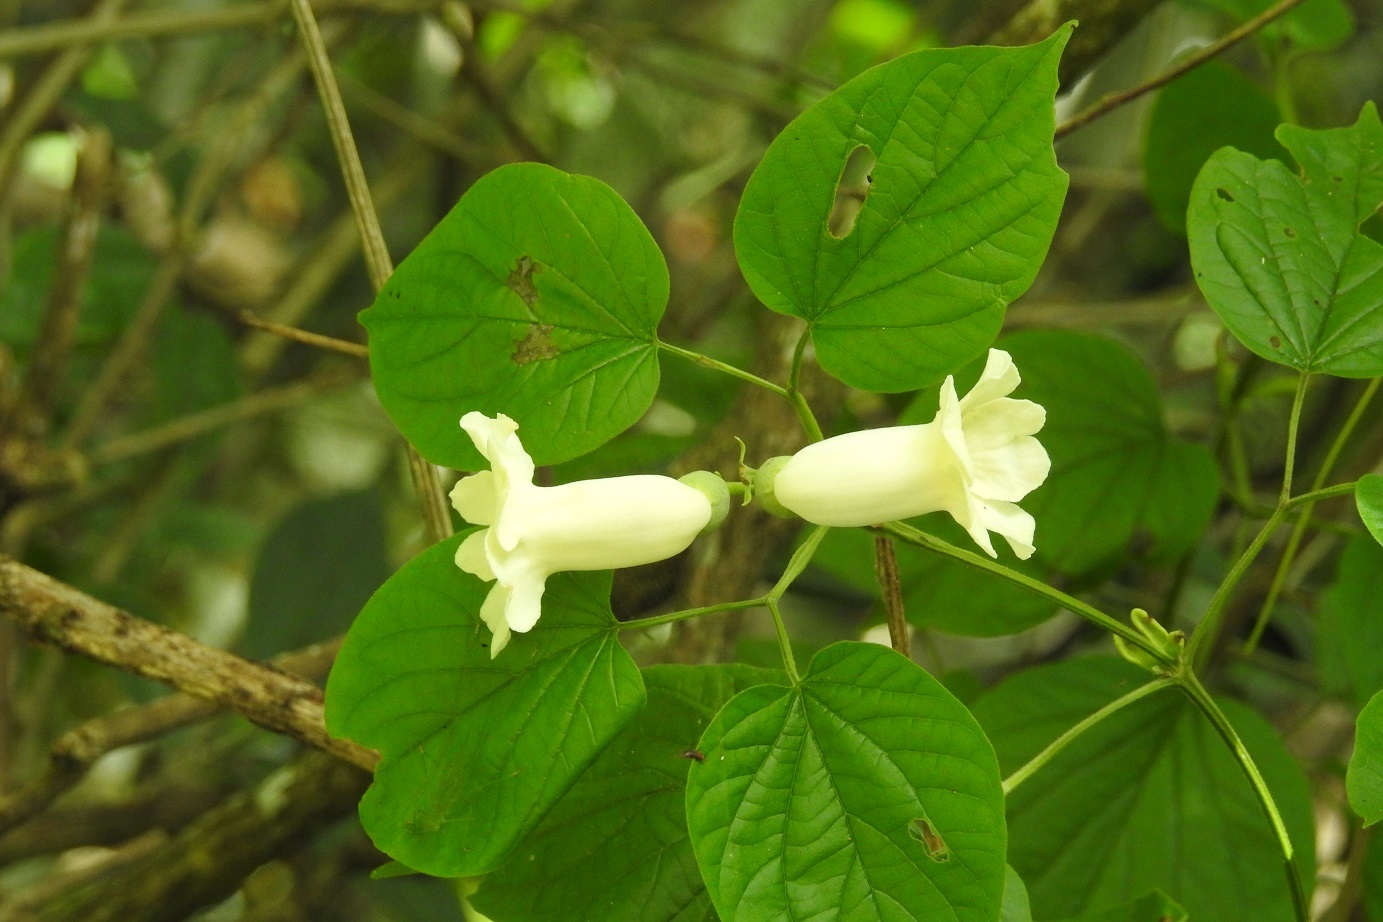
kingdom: Plantae
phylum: Tracheophyta
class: Magnoliopsida
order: Lamiales
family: Bignoniaceae
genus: Amphilophium
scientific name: Amphilophium crucigerum
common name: Monkey comb
